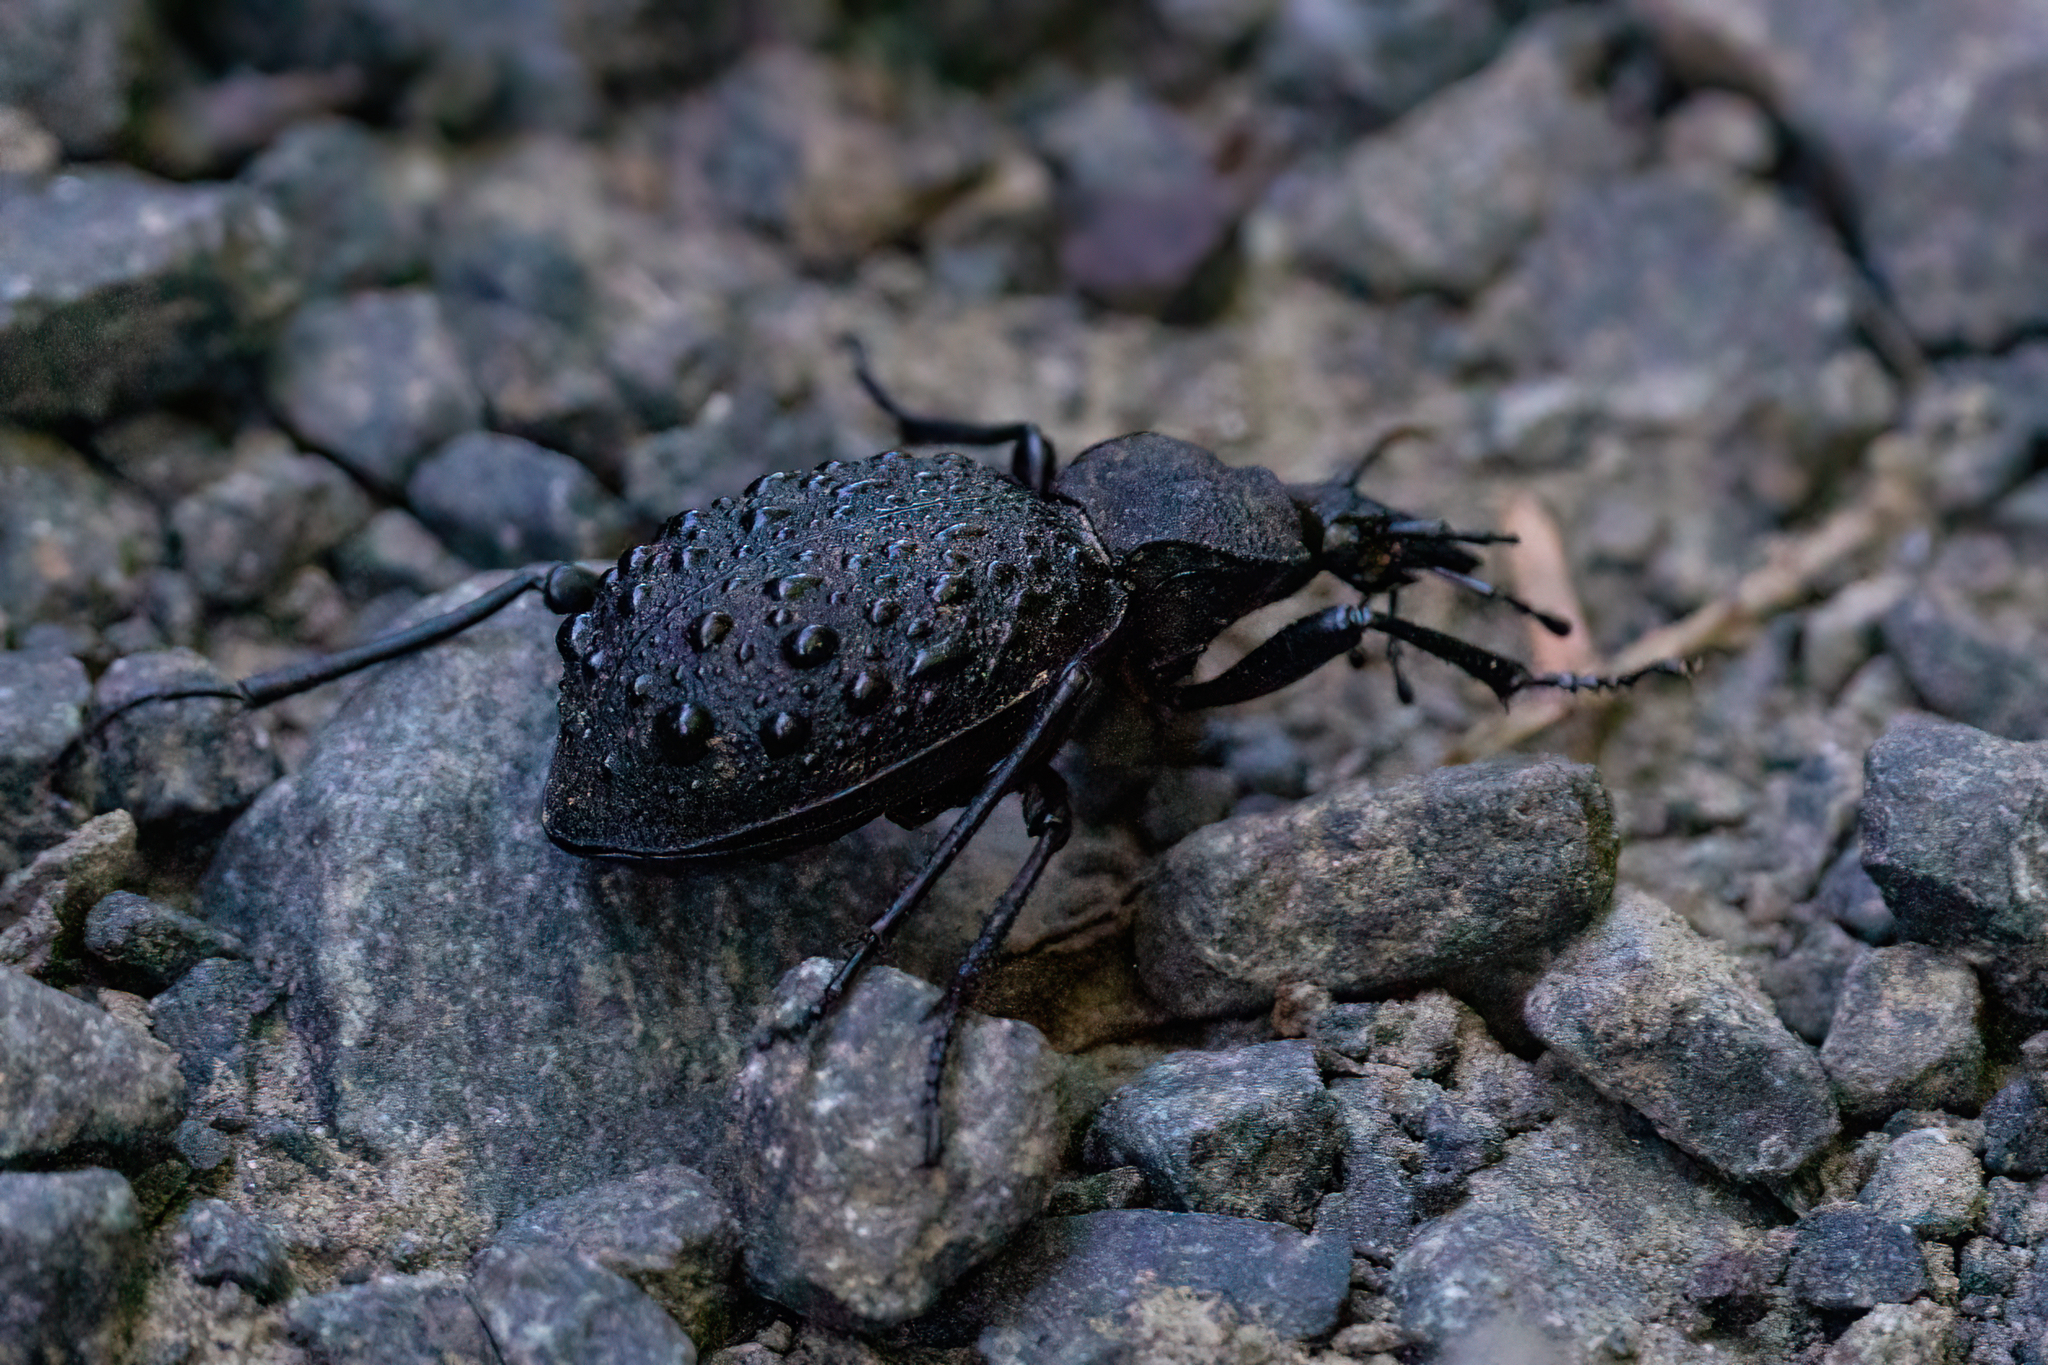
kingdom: Animalia
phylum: Arthropoda
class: Insecta
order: Coleoptera
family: Carabidae
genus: Cychrus
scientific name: Cychrus tuberculatus
